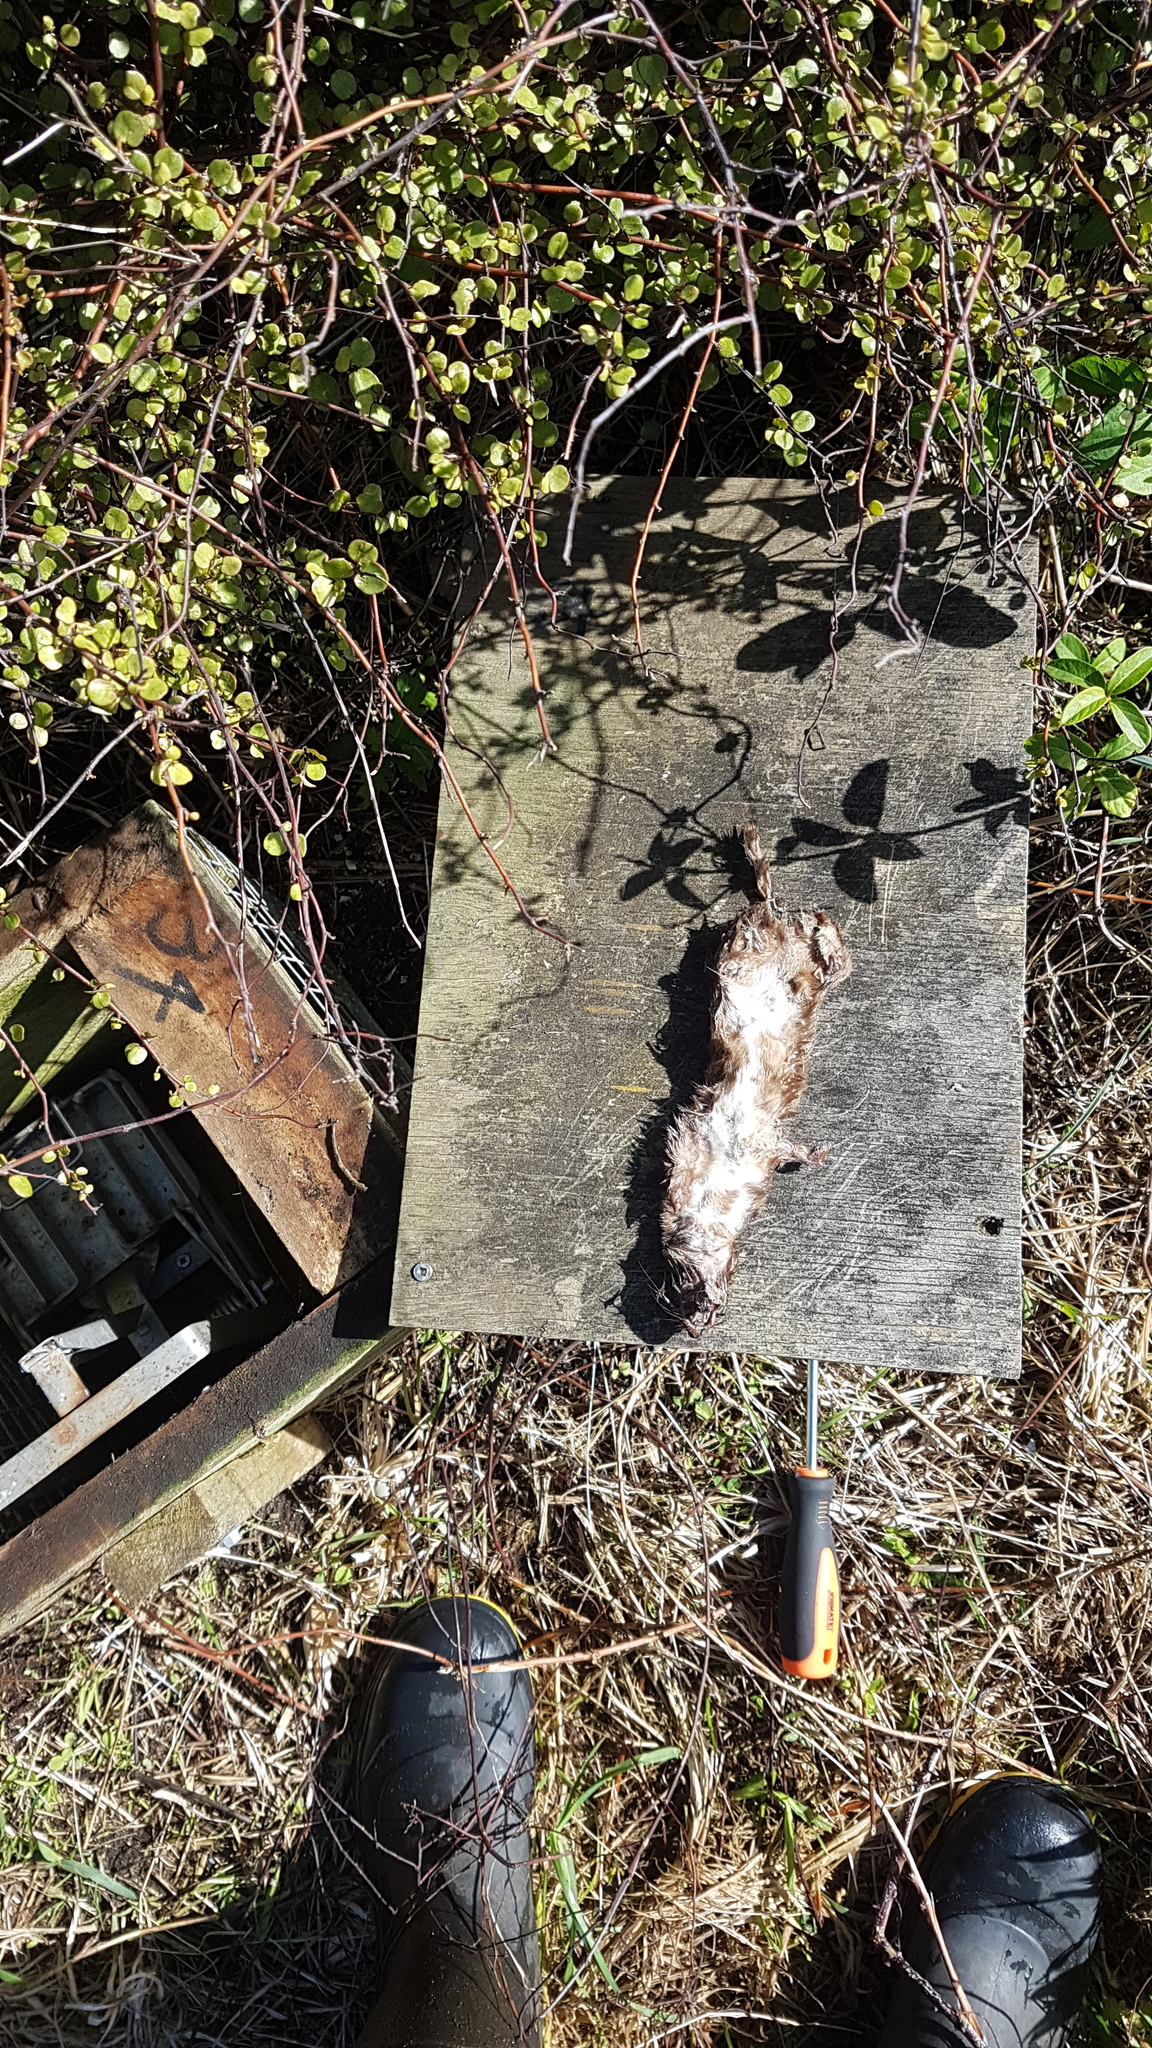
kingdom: Animalia
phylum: Chordata
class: Mammalia
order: Carnivora
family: Mustelidae
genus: Mustela
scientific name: Mustela nivalis
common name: Least weasel
